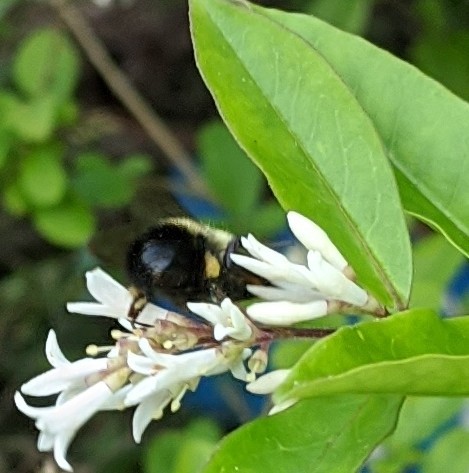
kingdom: Animalia
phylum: Arthropoda
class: Insecta
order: Hymenoptera
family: Apidae
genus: Pyrobombus
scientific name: Pyrobombus
